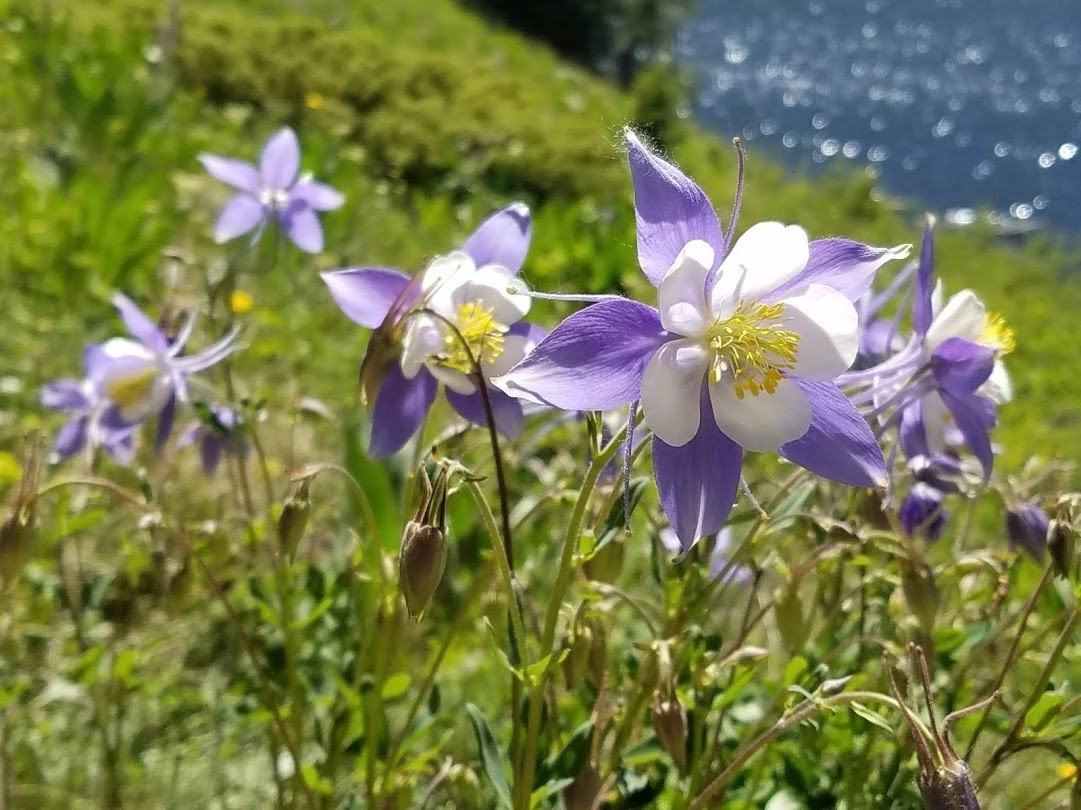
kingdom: Plantae
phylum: Tracheophyta
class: Magnoliopsida
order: Ranunculales
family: Ranunculaceae
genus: Aquilegia
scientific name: Aquilegia coerulea
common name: Rocky mountain columbine
